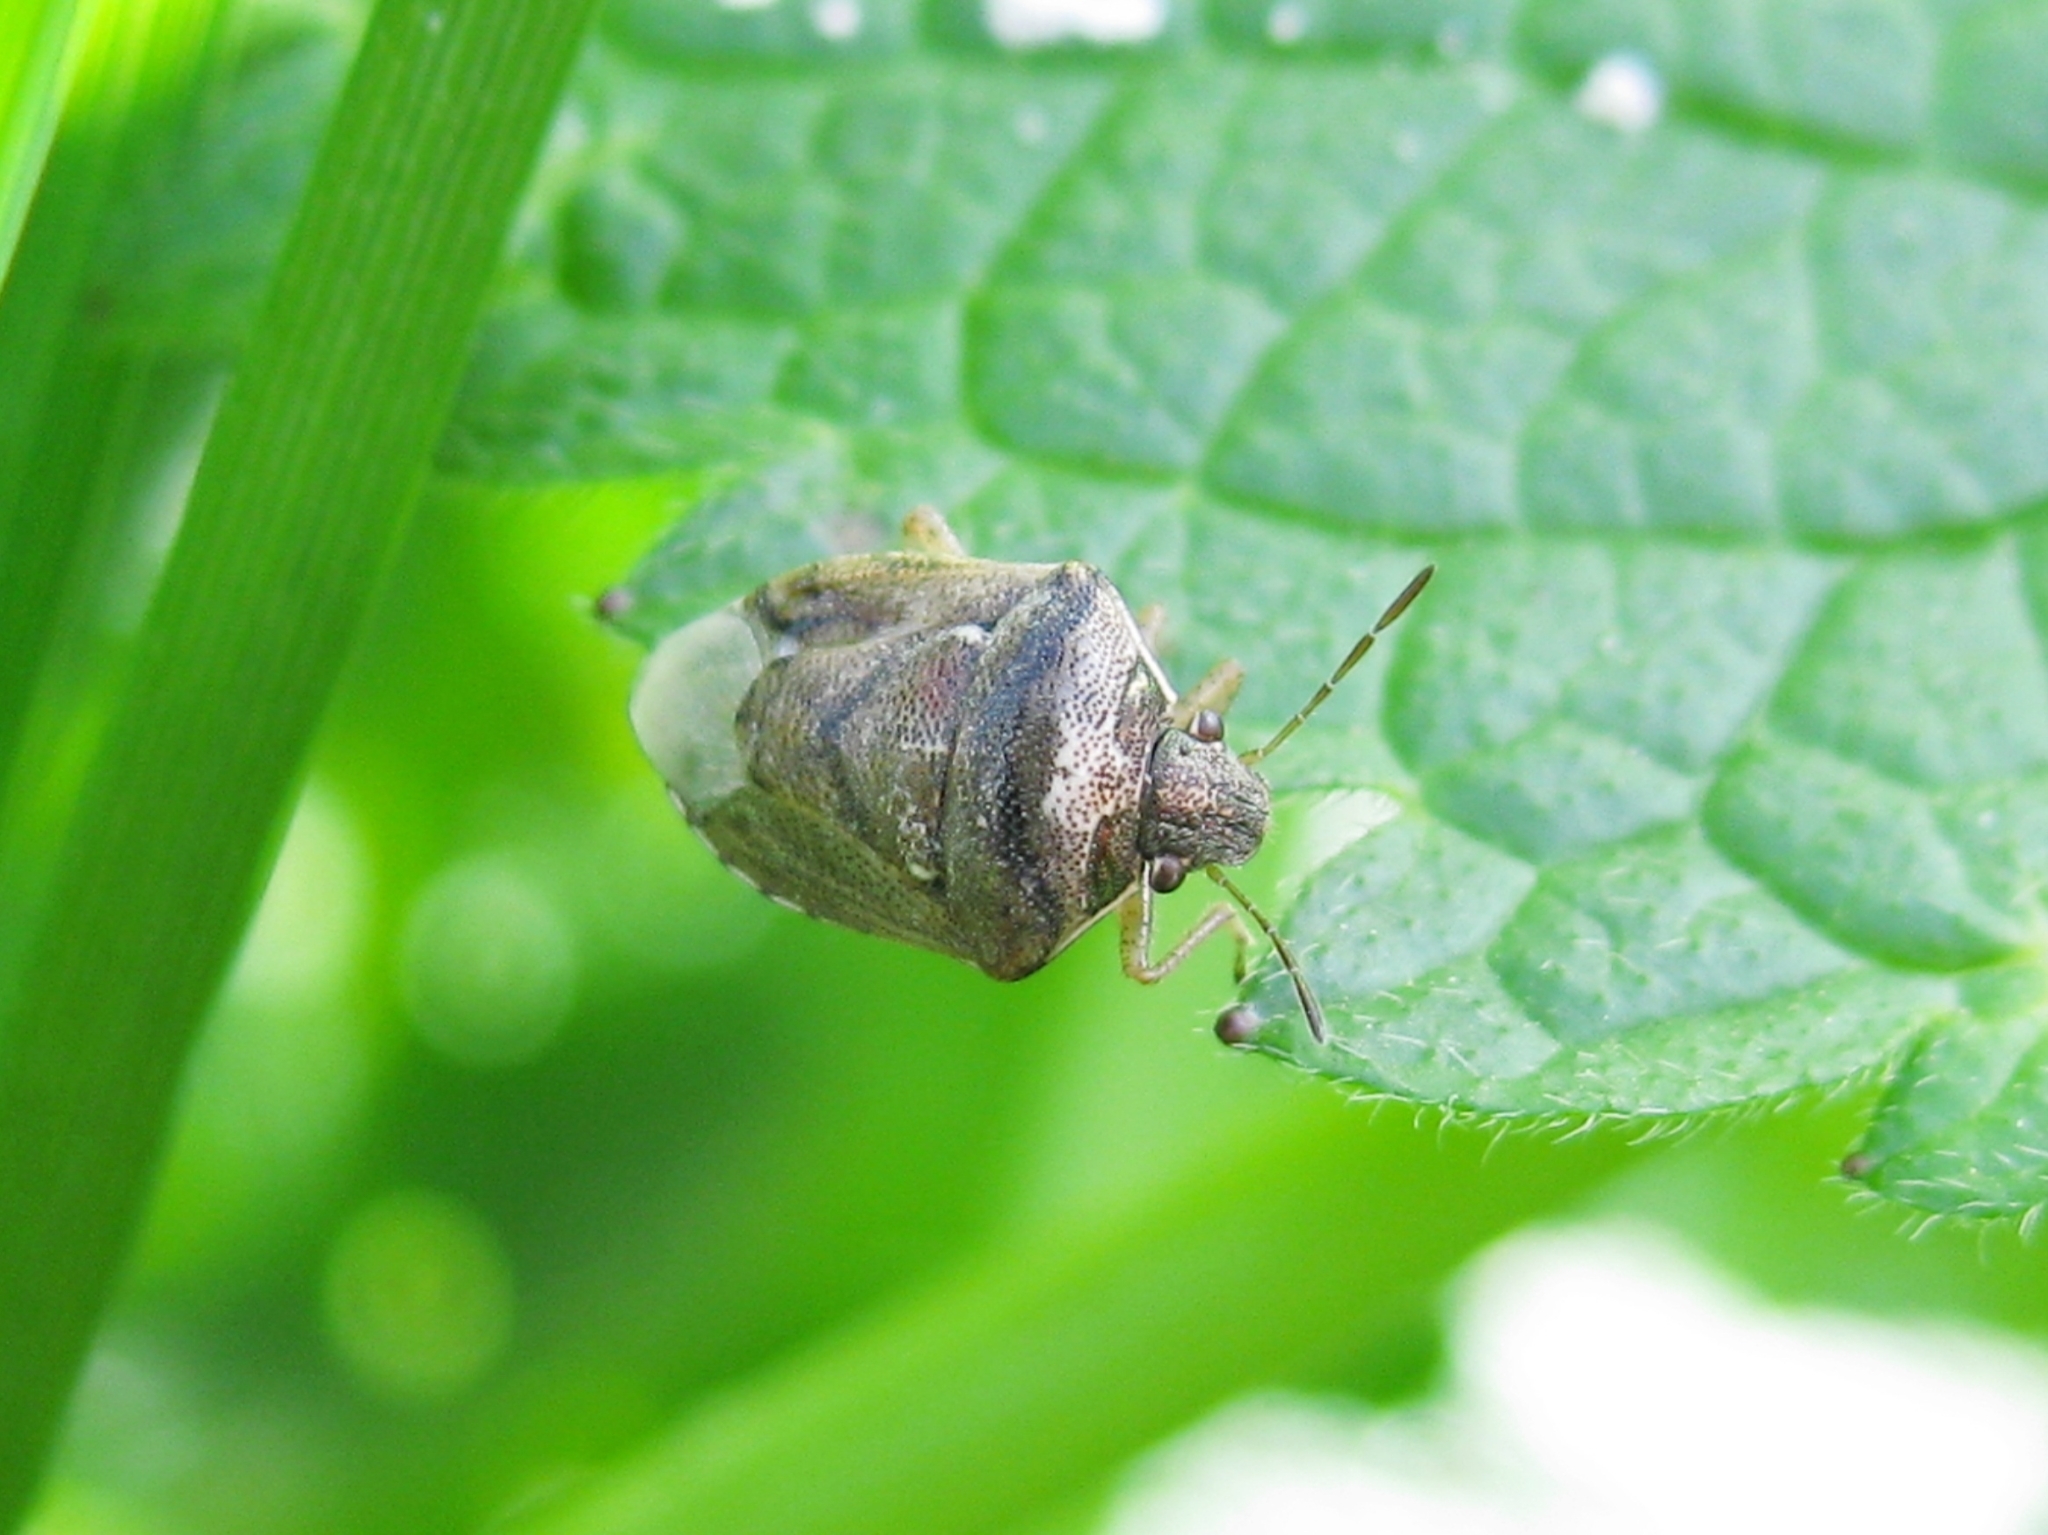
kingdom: Animalia
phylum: Arthropoda
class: Insecta
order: Hemiptera
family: Pentatomidae
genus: Eysarcoris
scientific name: Eysarcoris ventralis
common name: White-spotted stink bug
